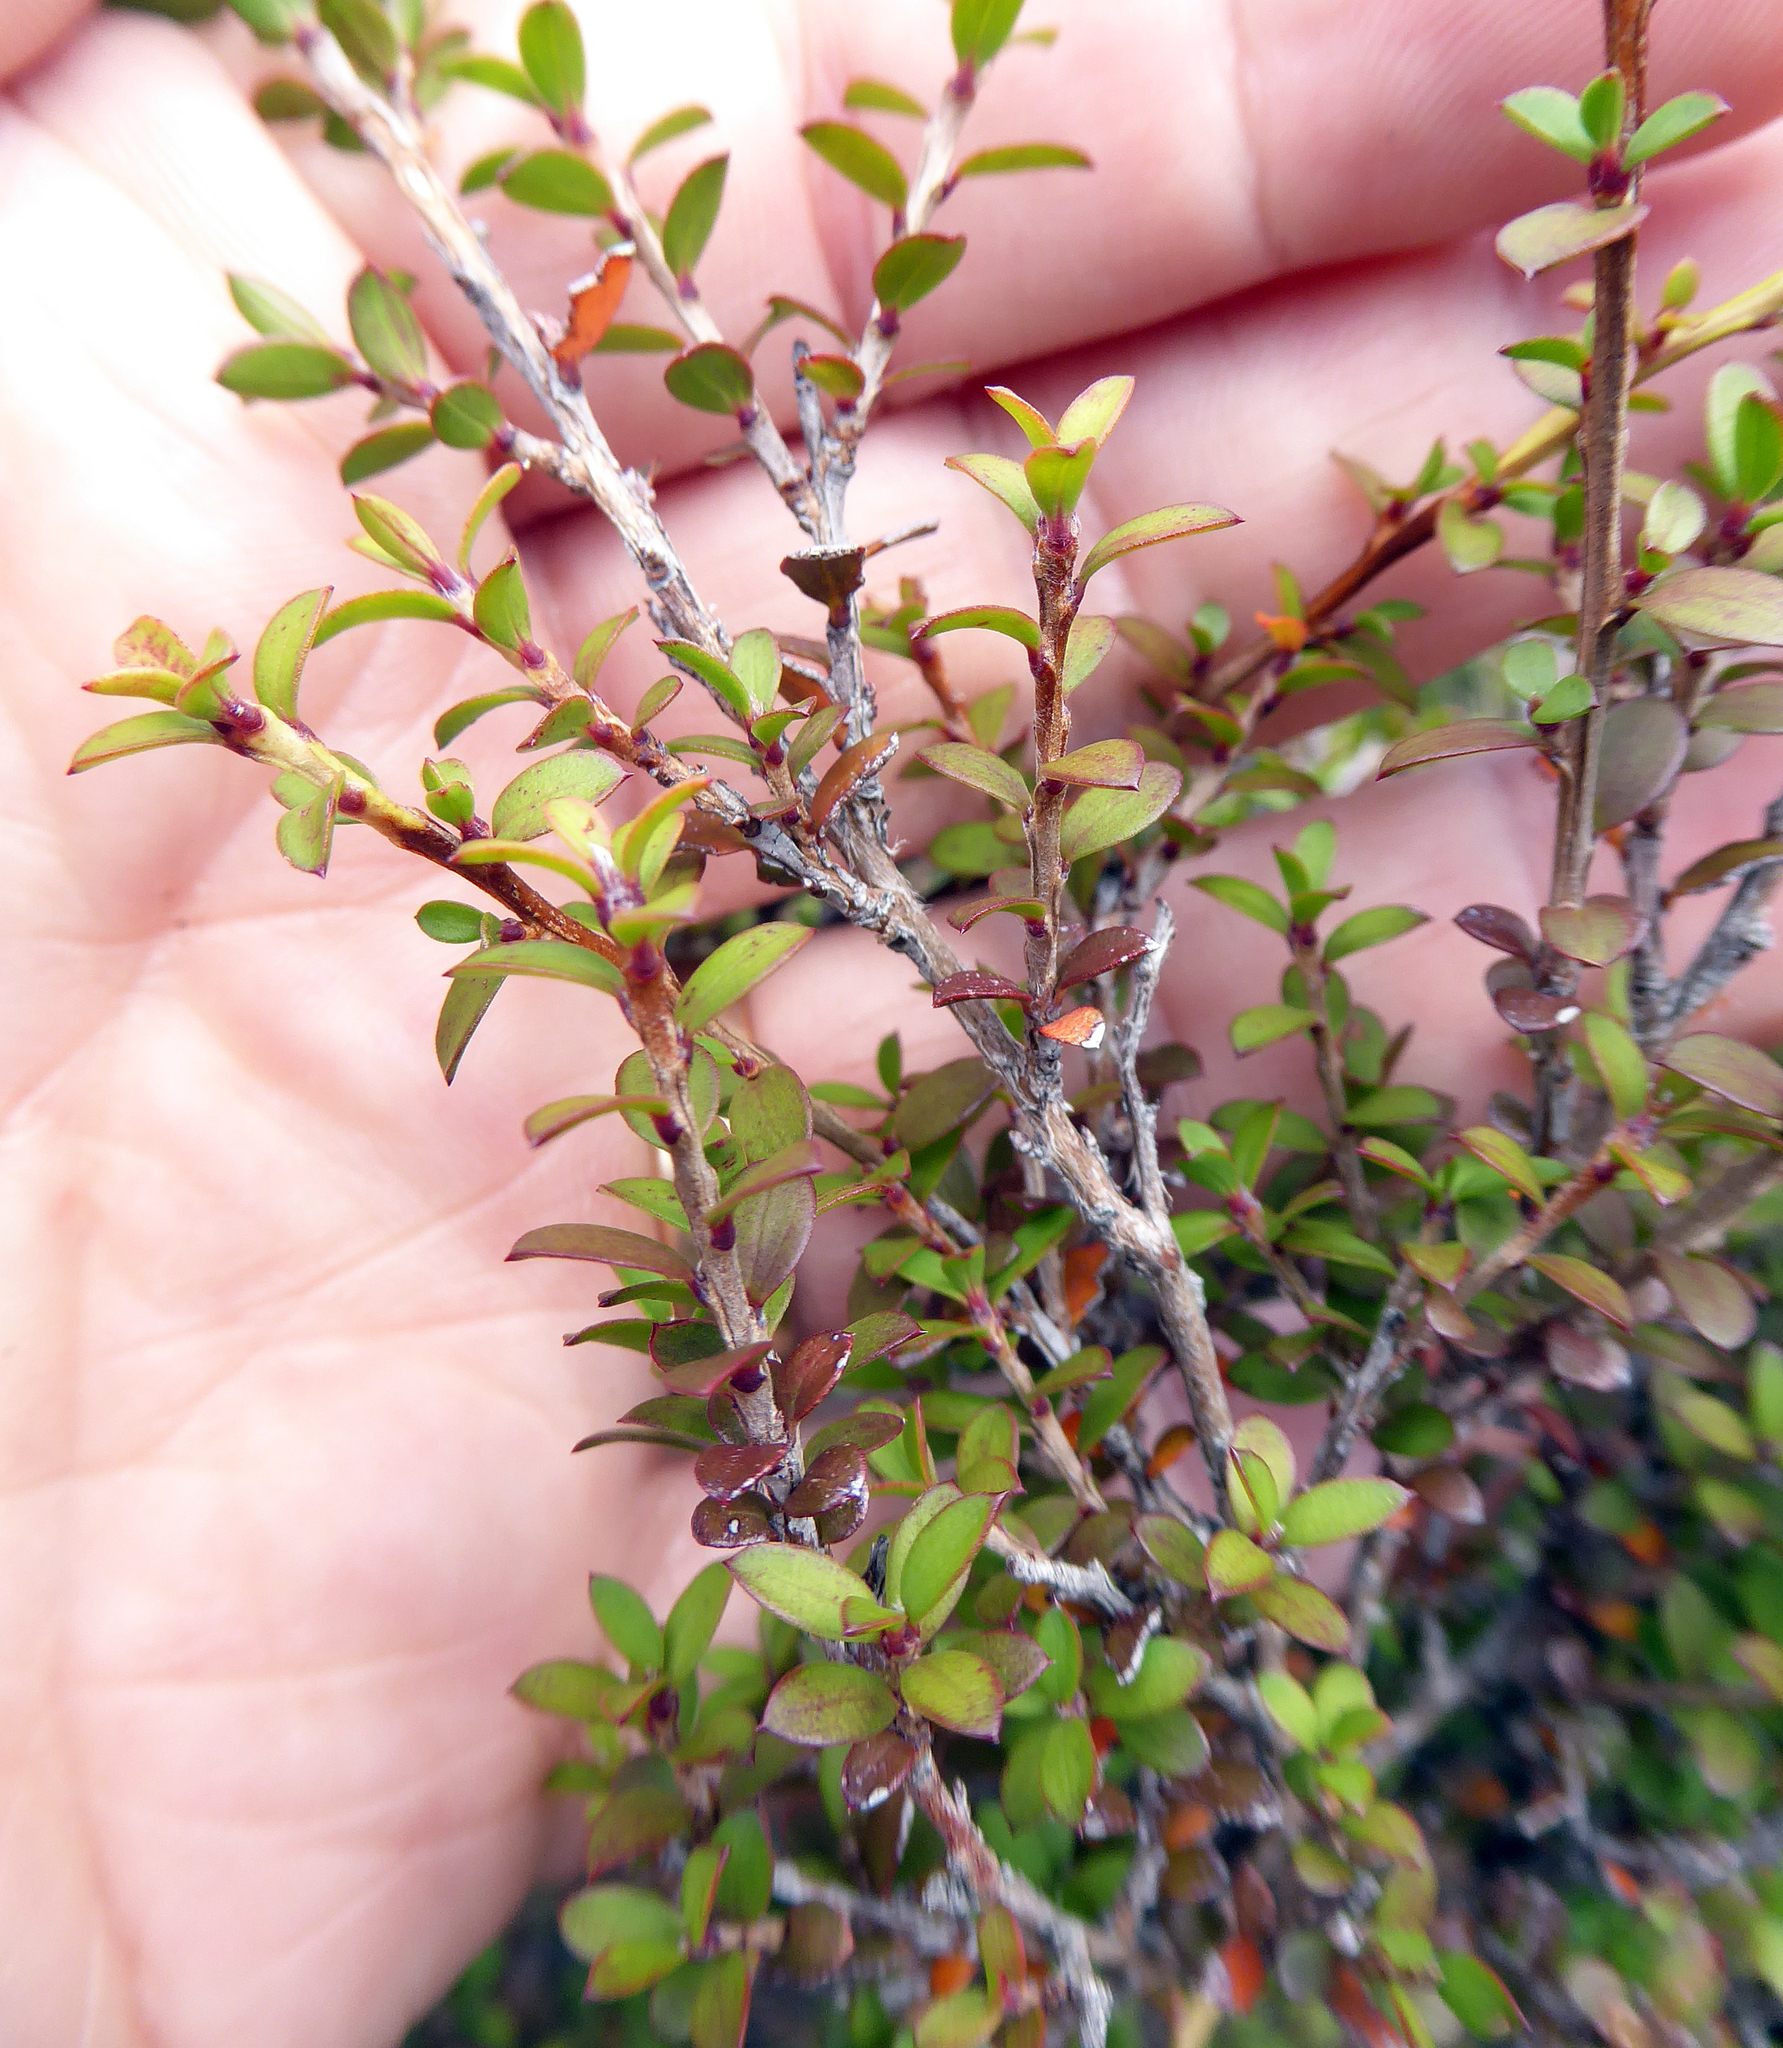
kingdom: Plantae
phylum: Tracheophyta
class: Magnoliopsida
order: Myrtales
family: Myrtaceae
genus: Leptospermum
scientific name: Leptospermum scoparium
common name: Broom tea-tree
